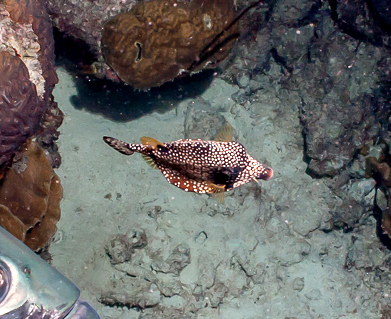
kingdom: Animalia
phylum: Chordata
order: Tetraodontiformes
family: Ostraciidae
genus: Lactophrys
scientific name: Lactophrys triqueter
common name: Smooth trunkfish
